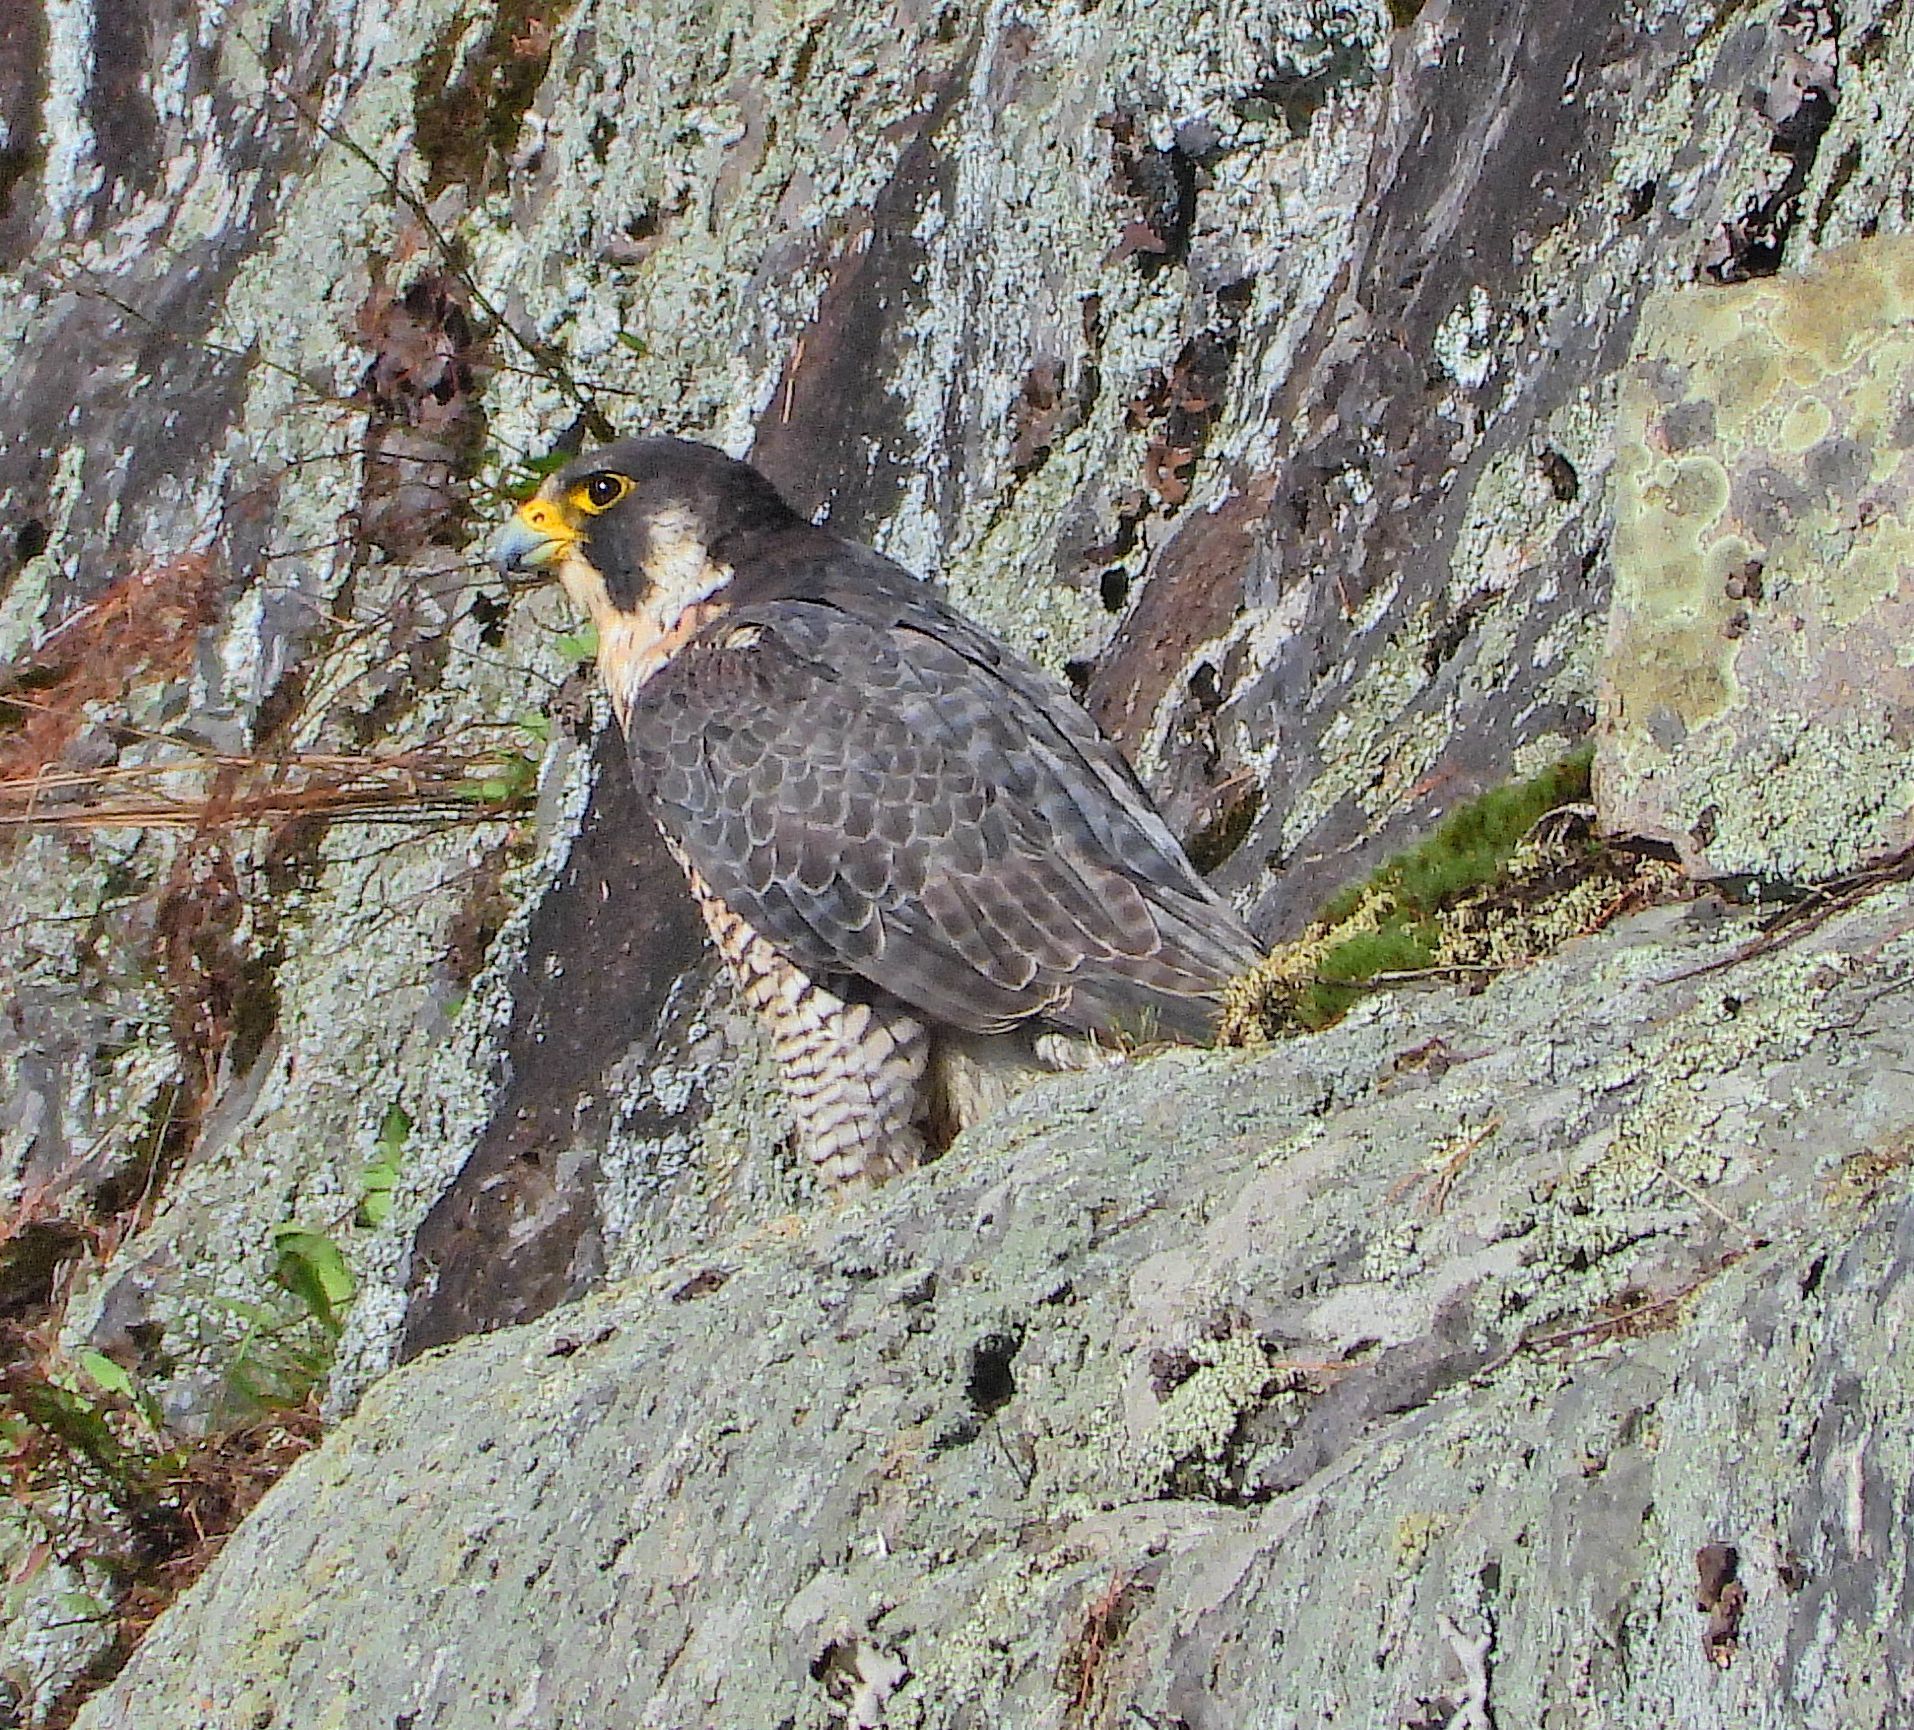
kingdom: Animalia
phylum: Chordata
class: Aves
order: Falconiformes
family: Falconidae
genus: Falco
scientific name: Falco peregrinus
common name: Peregrine falcon
